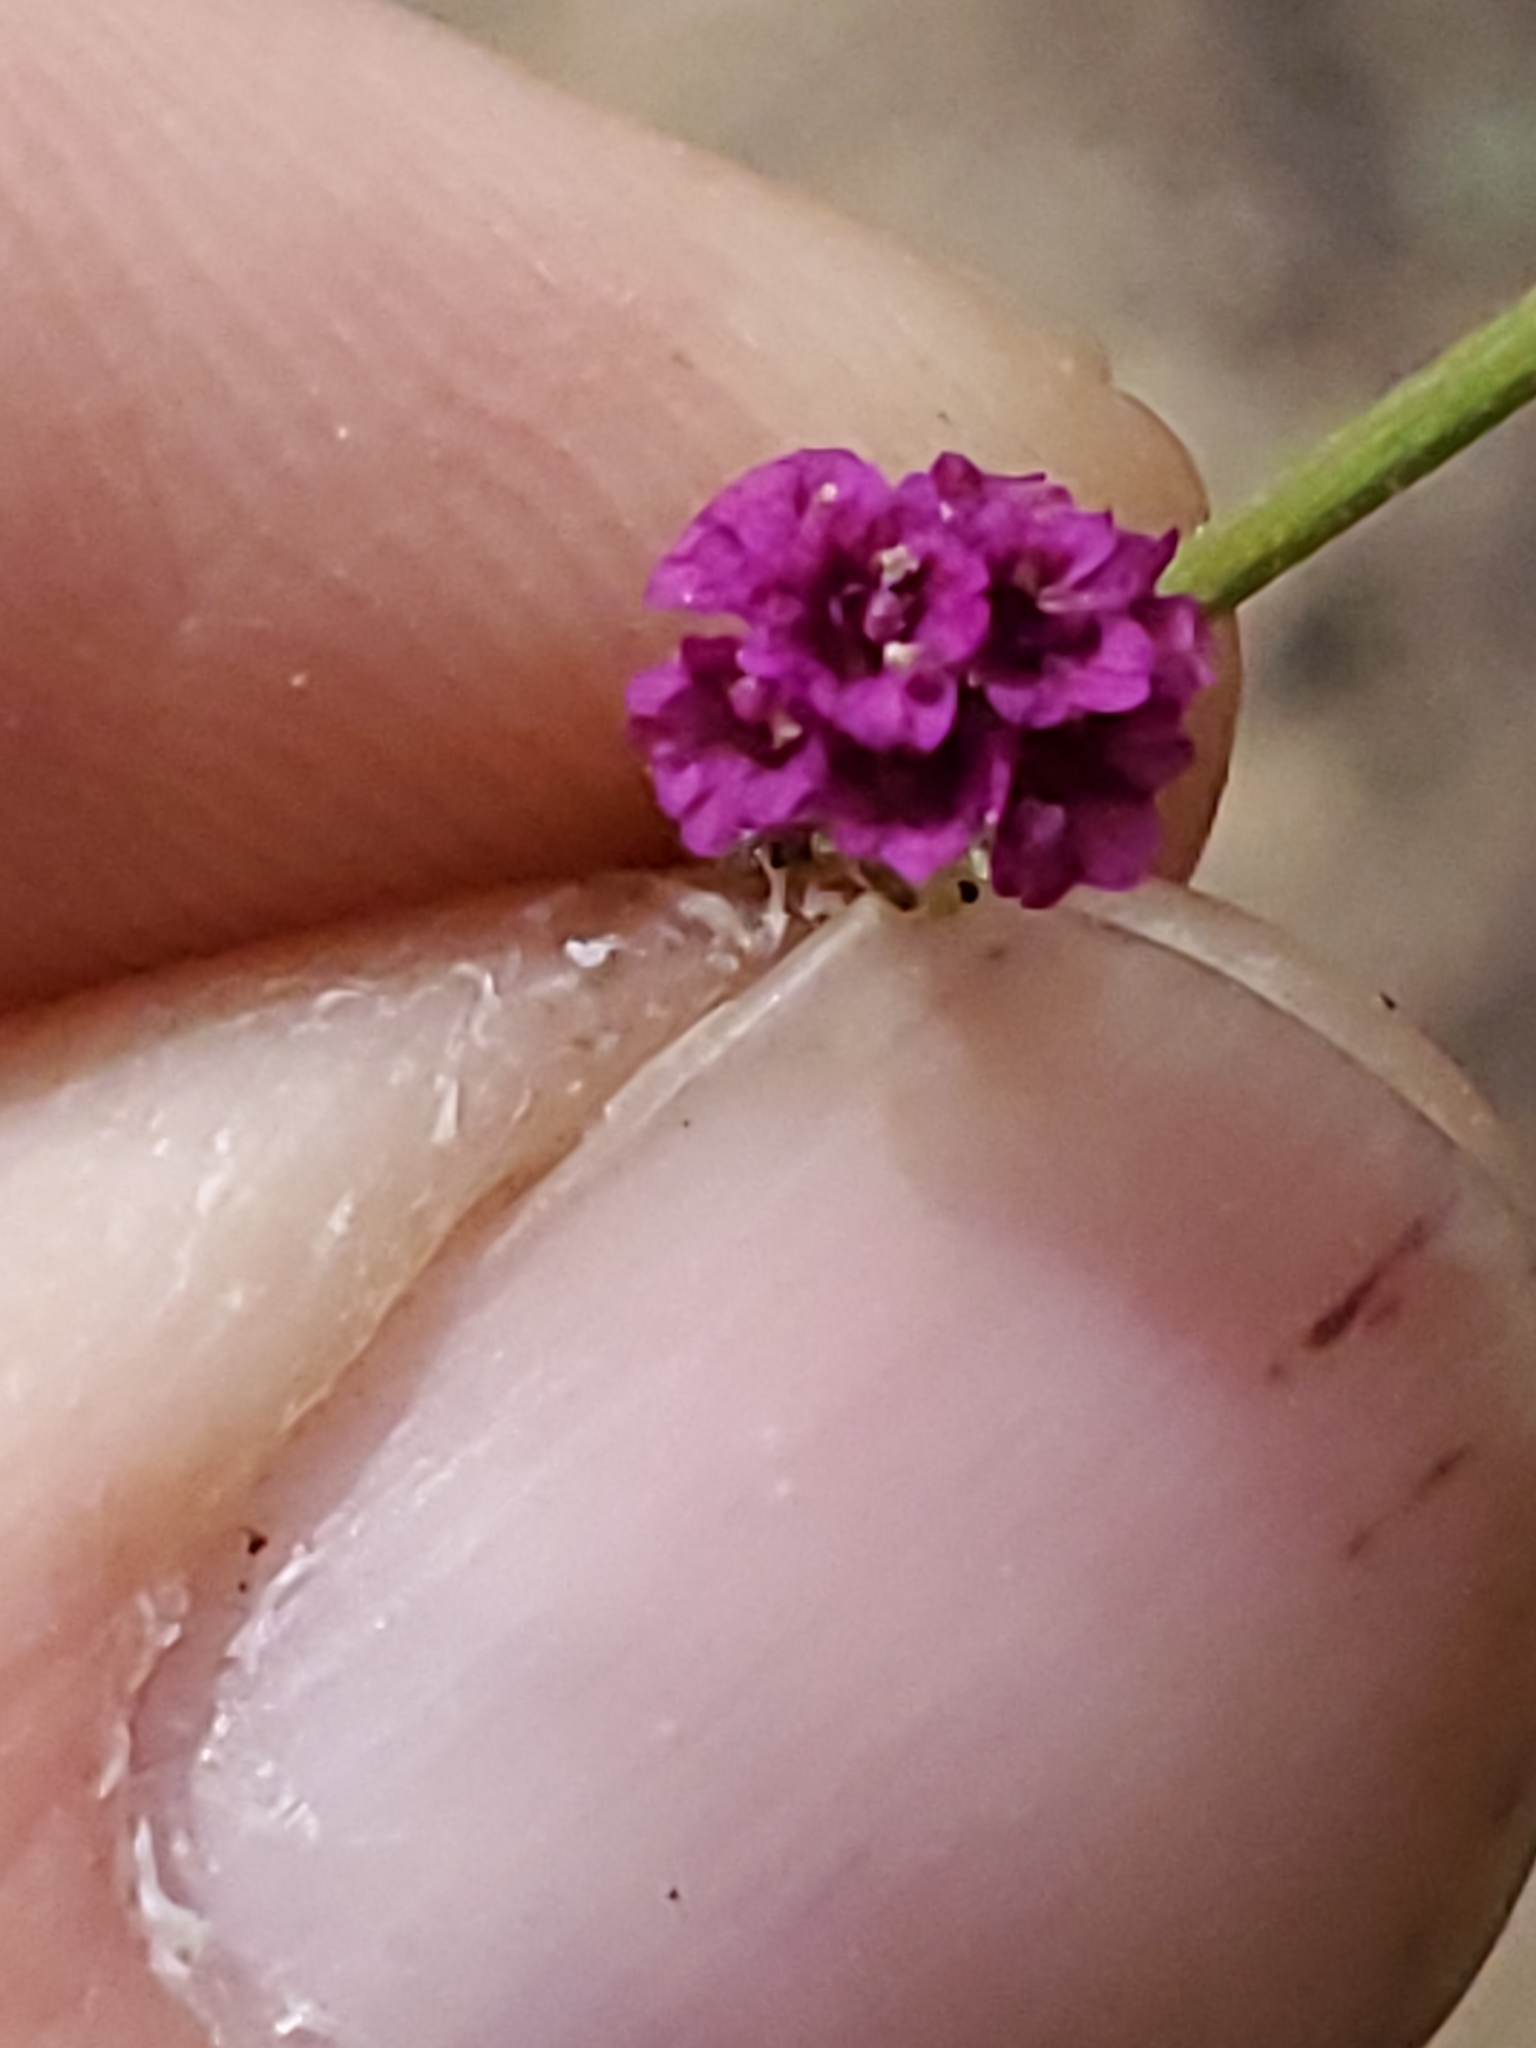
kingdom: Plantae
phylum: Tracheophyta
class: Magnoliopsida
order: Caryophyllales
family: Nyctaginaceae
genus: Boerhavia
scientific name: Boerhavia coccinea
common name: Scarlet spiderling
